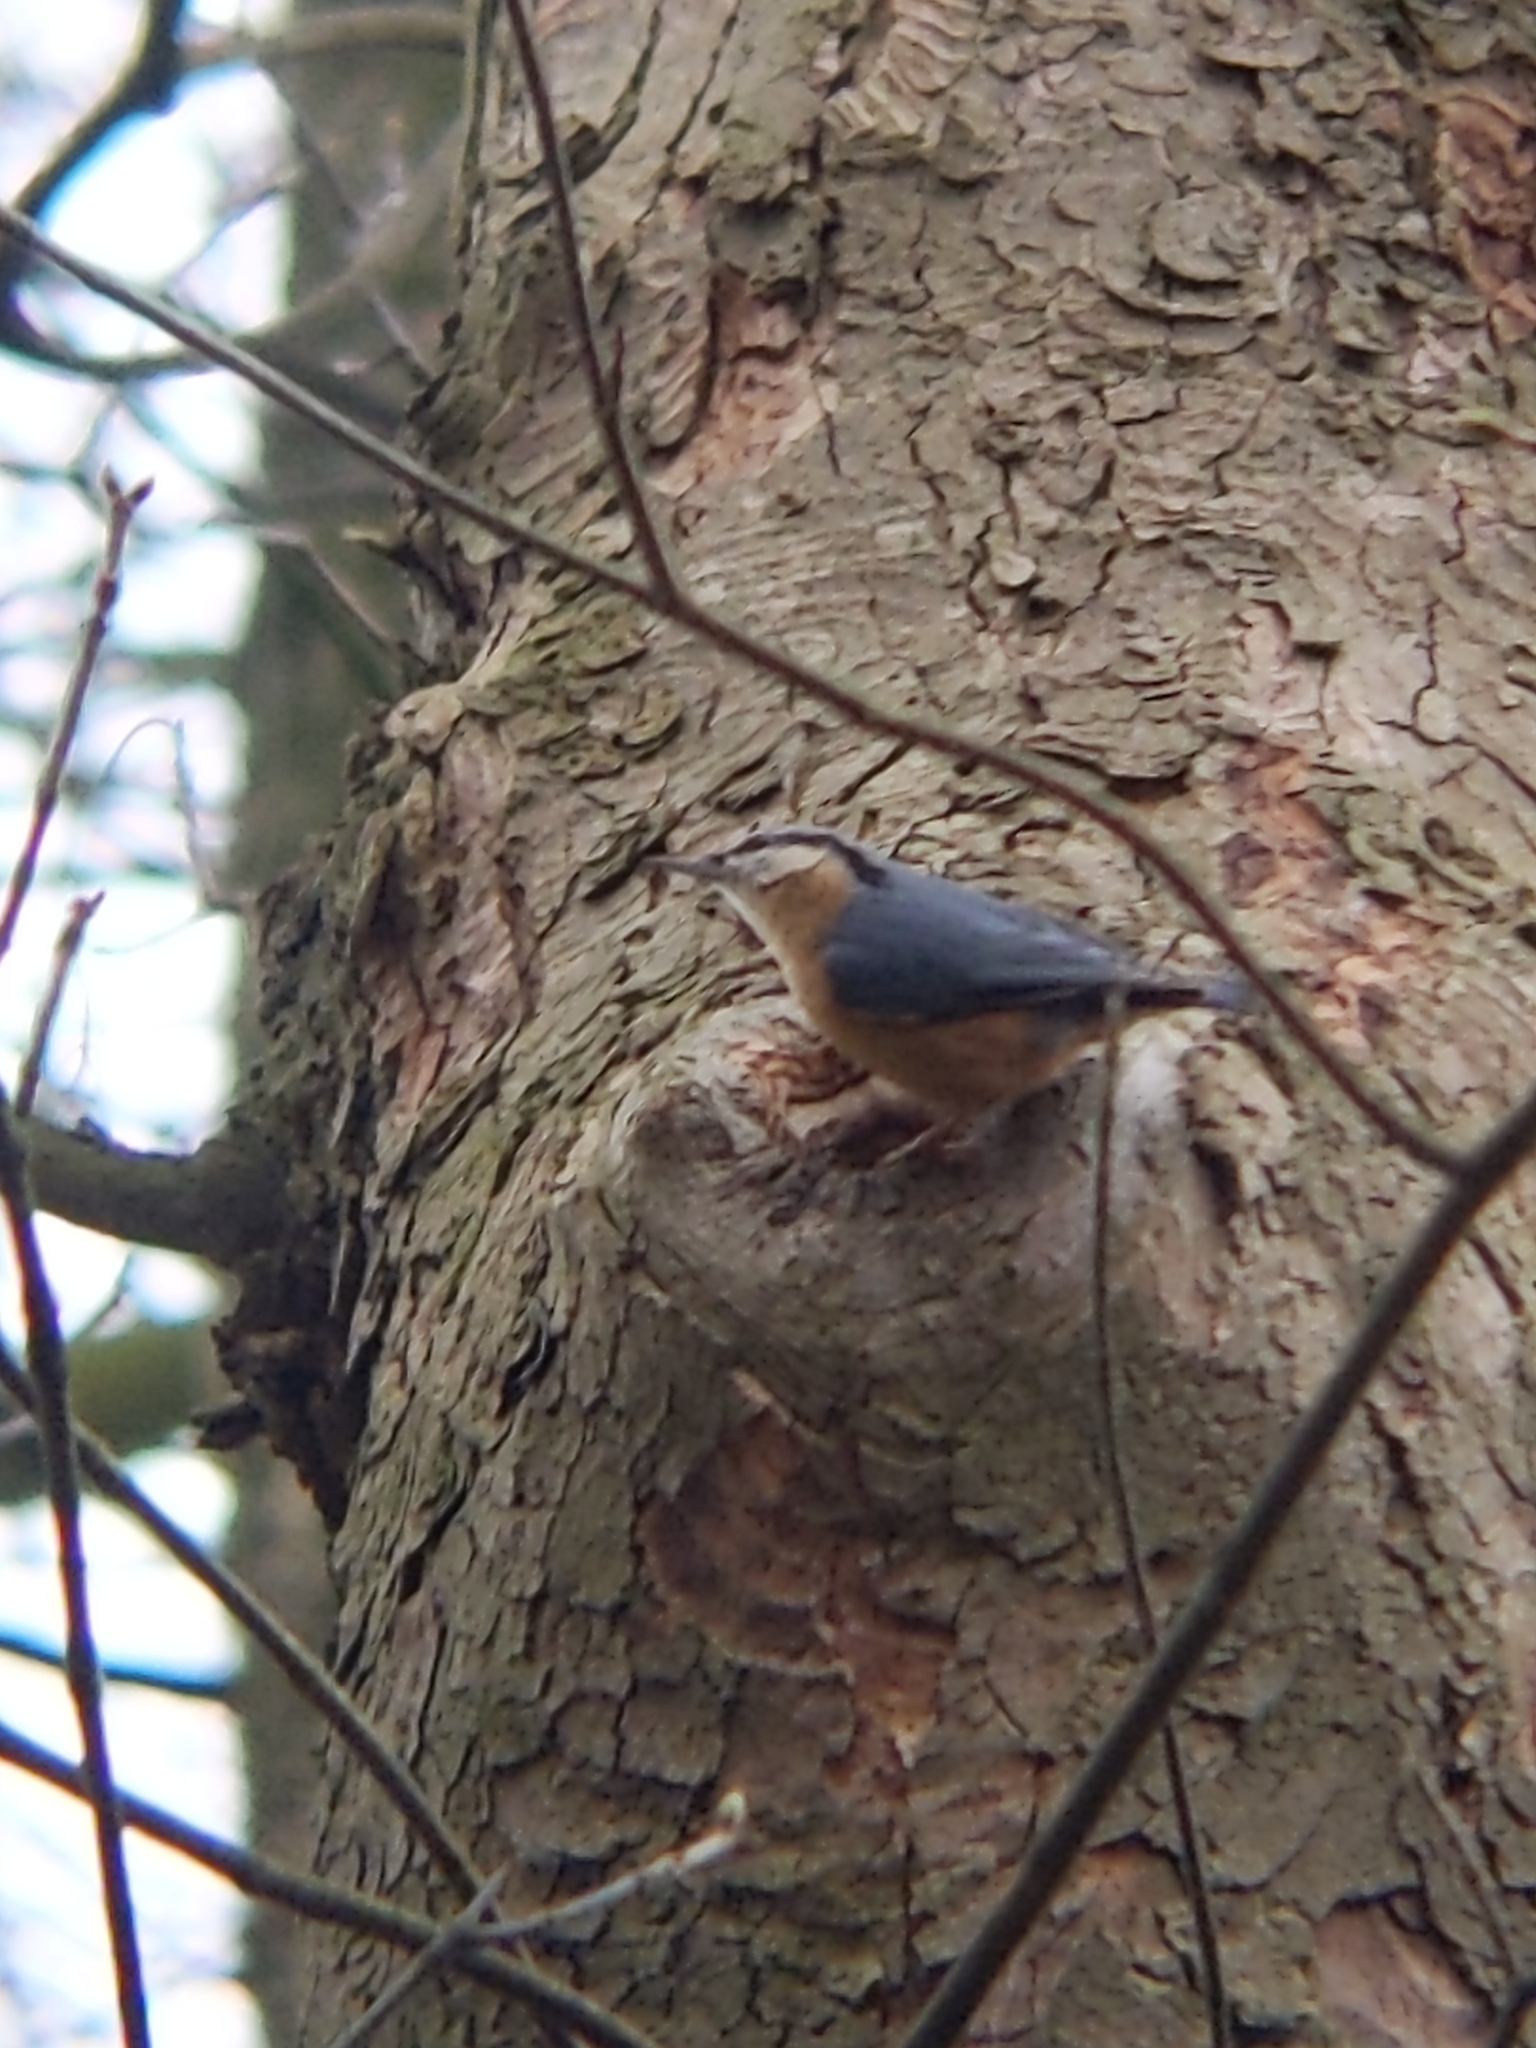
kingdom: Animalia
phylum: Chordata
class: Aves
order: Passeriformes
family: Sittidae
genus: Sitta
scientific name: Sitta europaea
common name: Eurasian nuthatch
